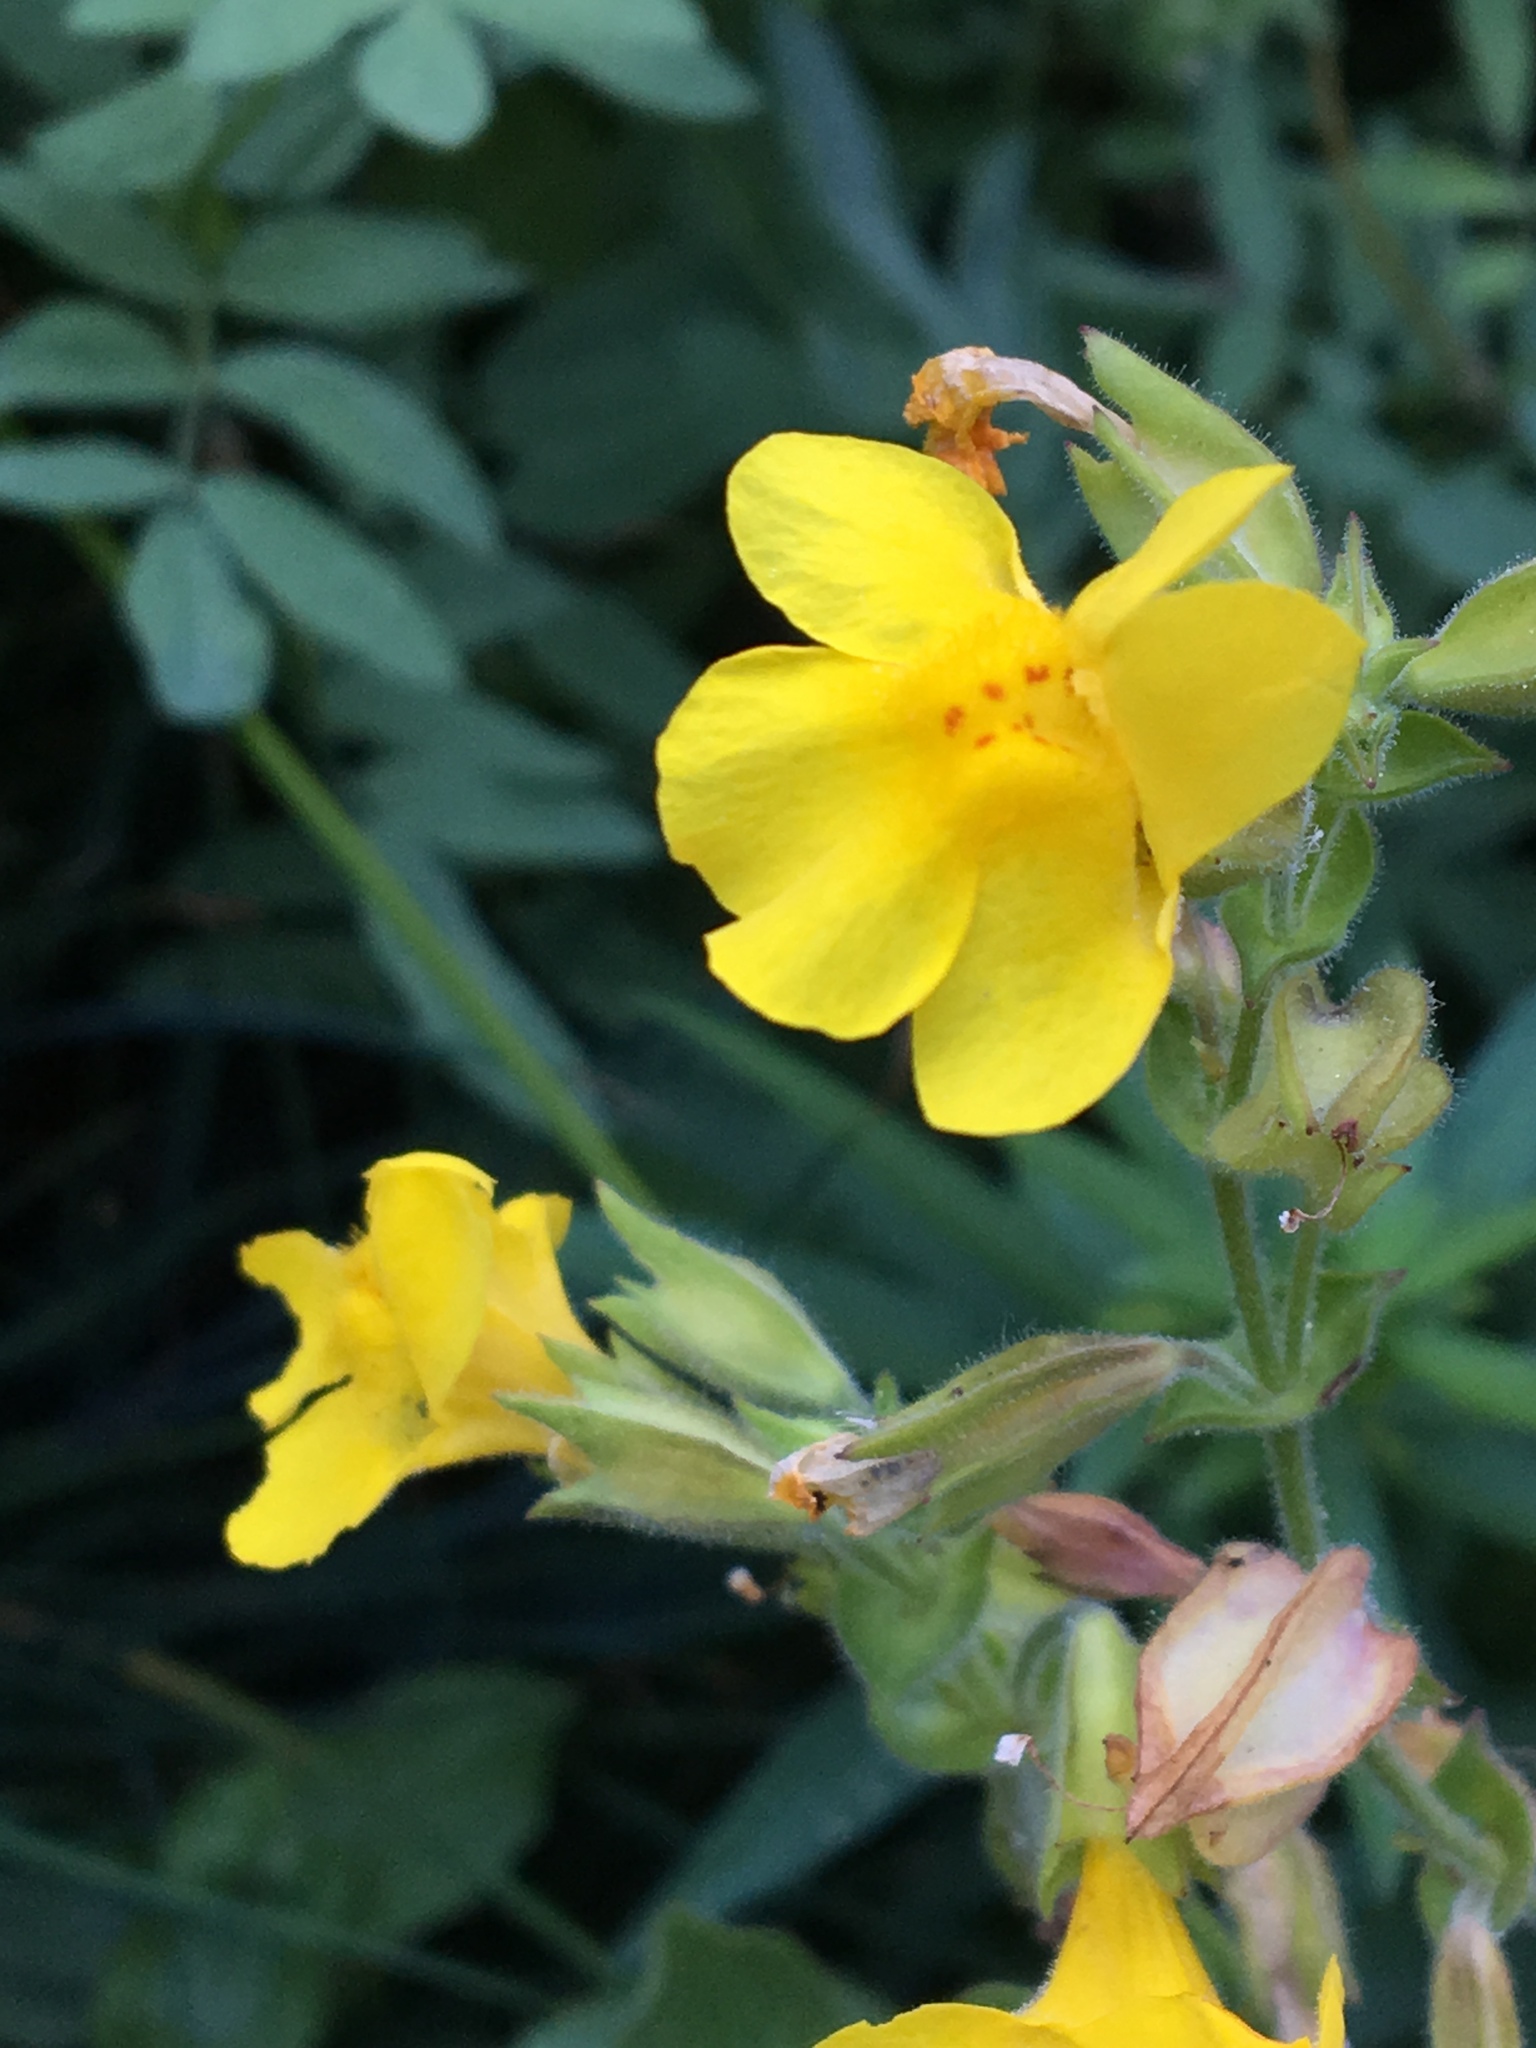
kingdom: Plantae
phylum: Tracheophyta
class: Magnoliopsida
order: Lamiales
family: Phrymaceae
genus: Erythranthe
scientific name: Erythranthe guttata
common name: Monkeyflower
